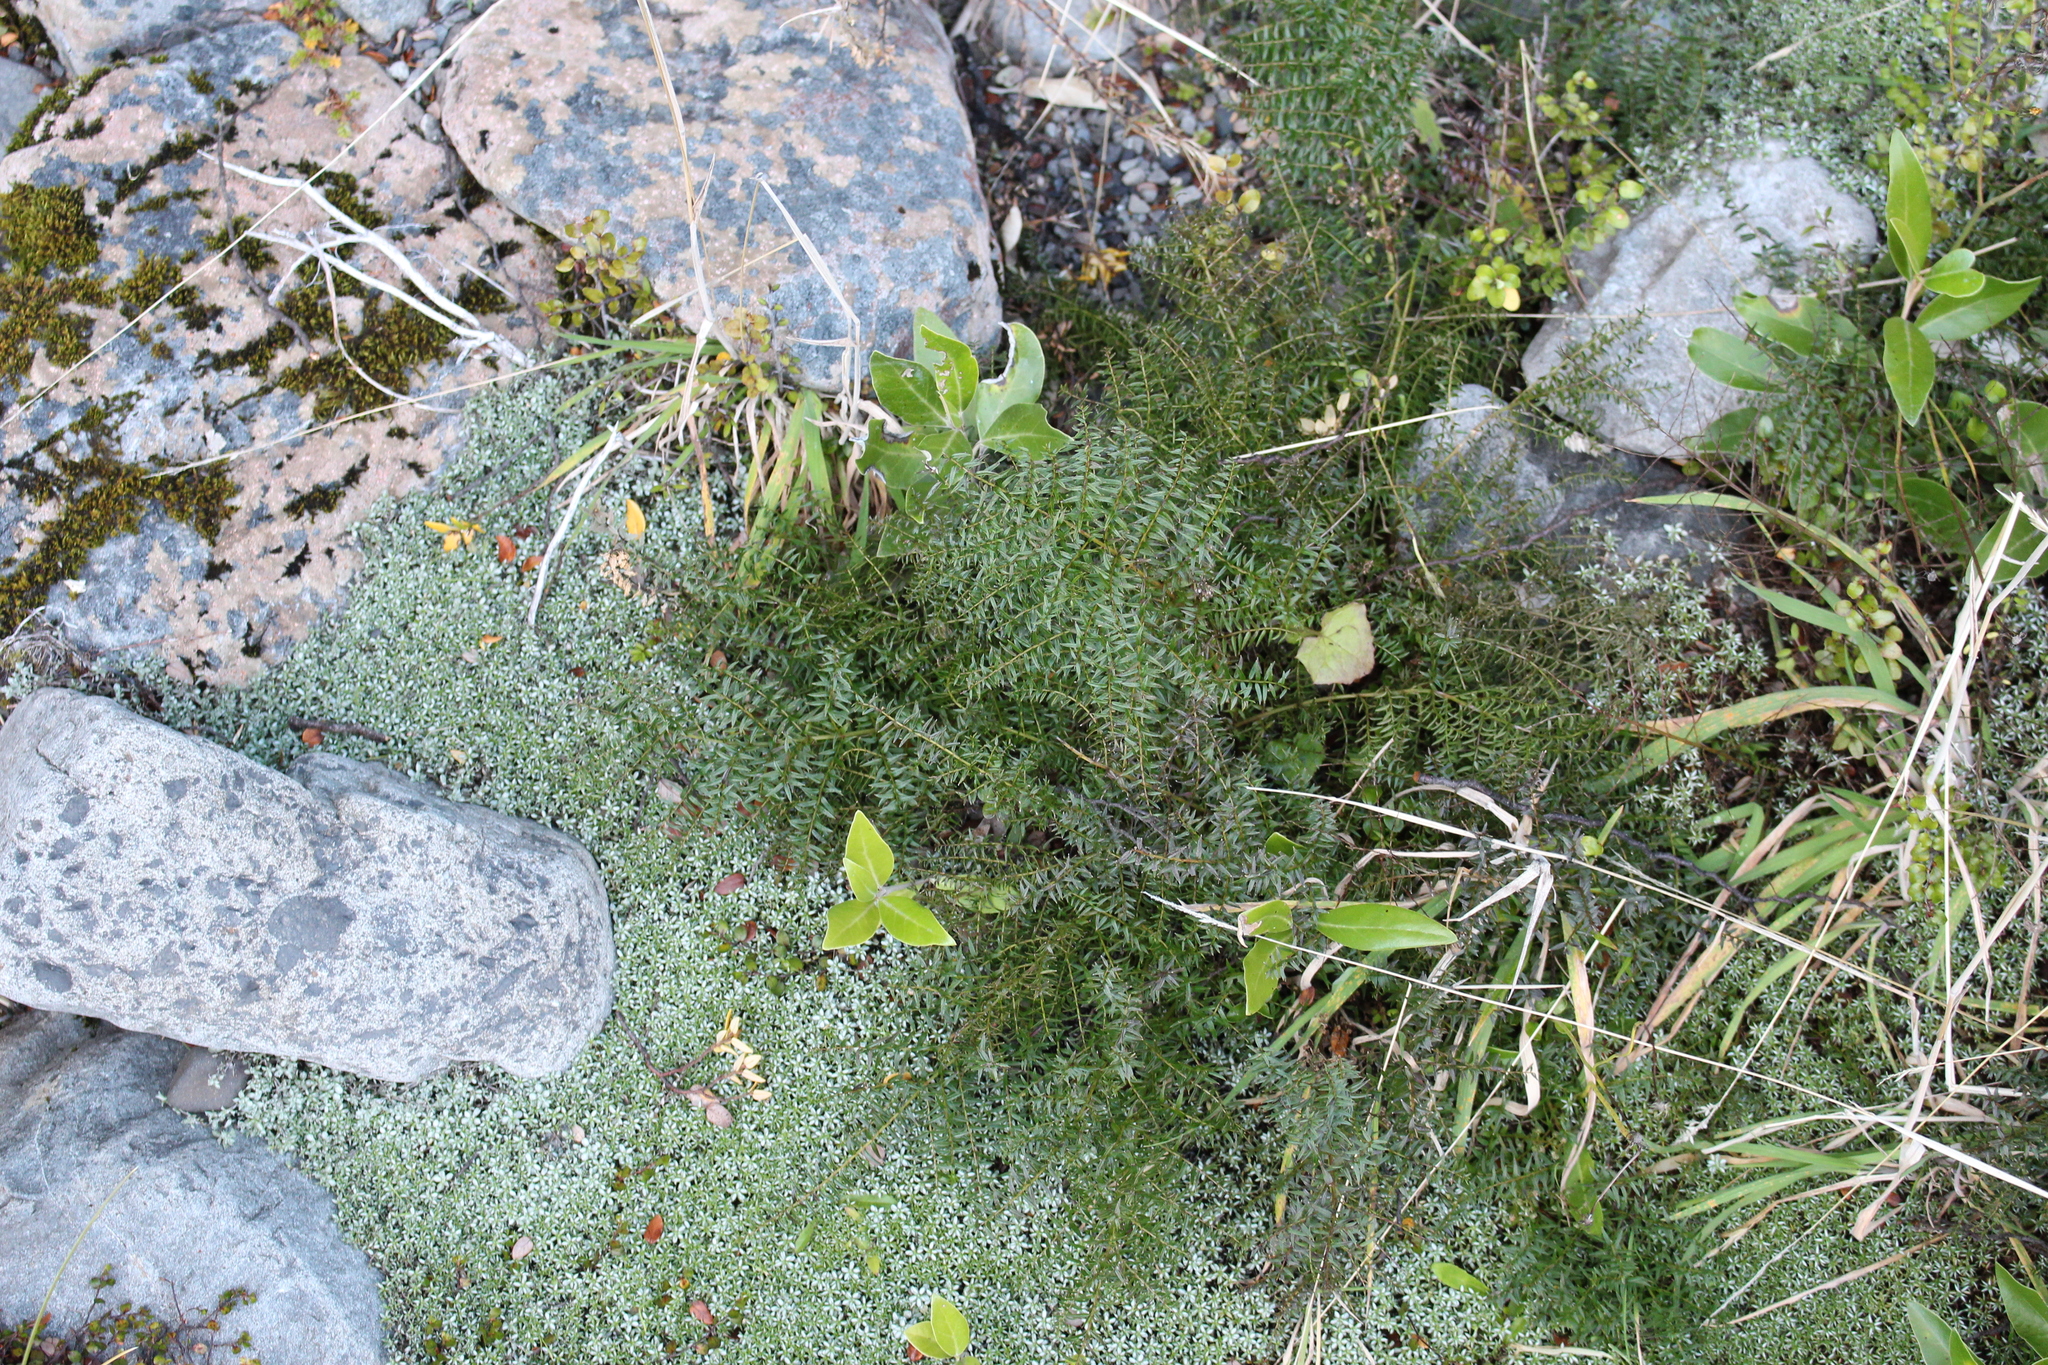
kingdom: Plantae
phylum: Tracheophyta
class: Magnoliopsida
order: Cucurbitales
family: Coriariaceae
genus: Coriaria
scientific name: Coriaria plumosa
